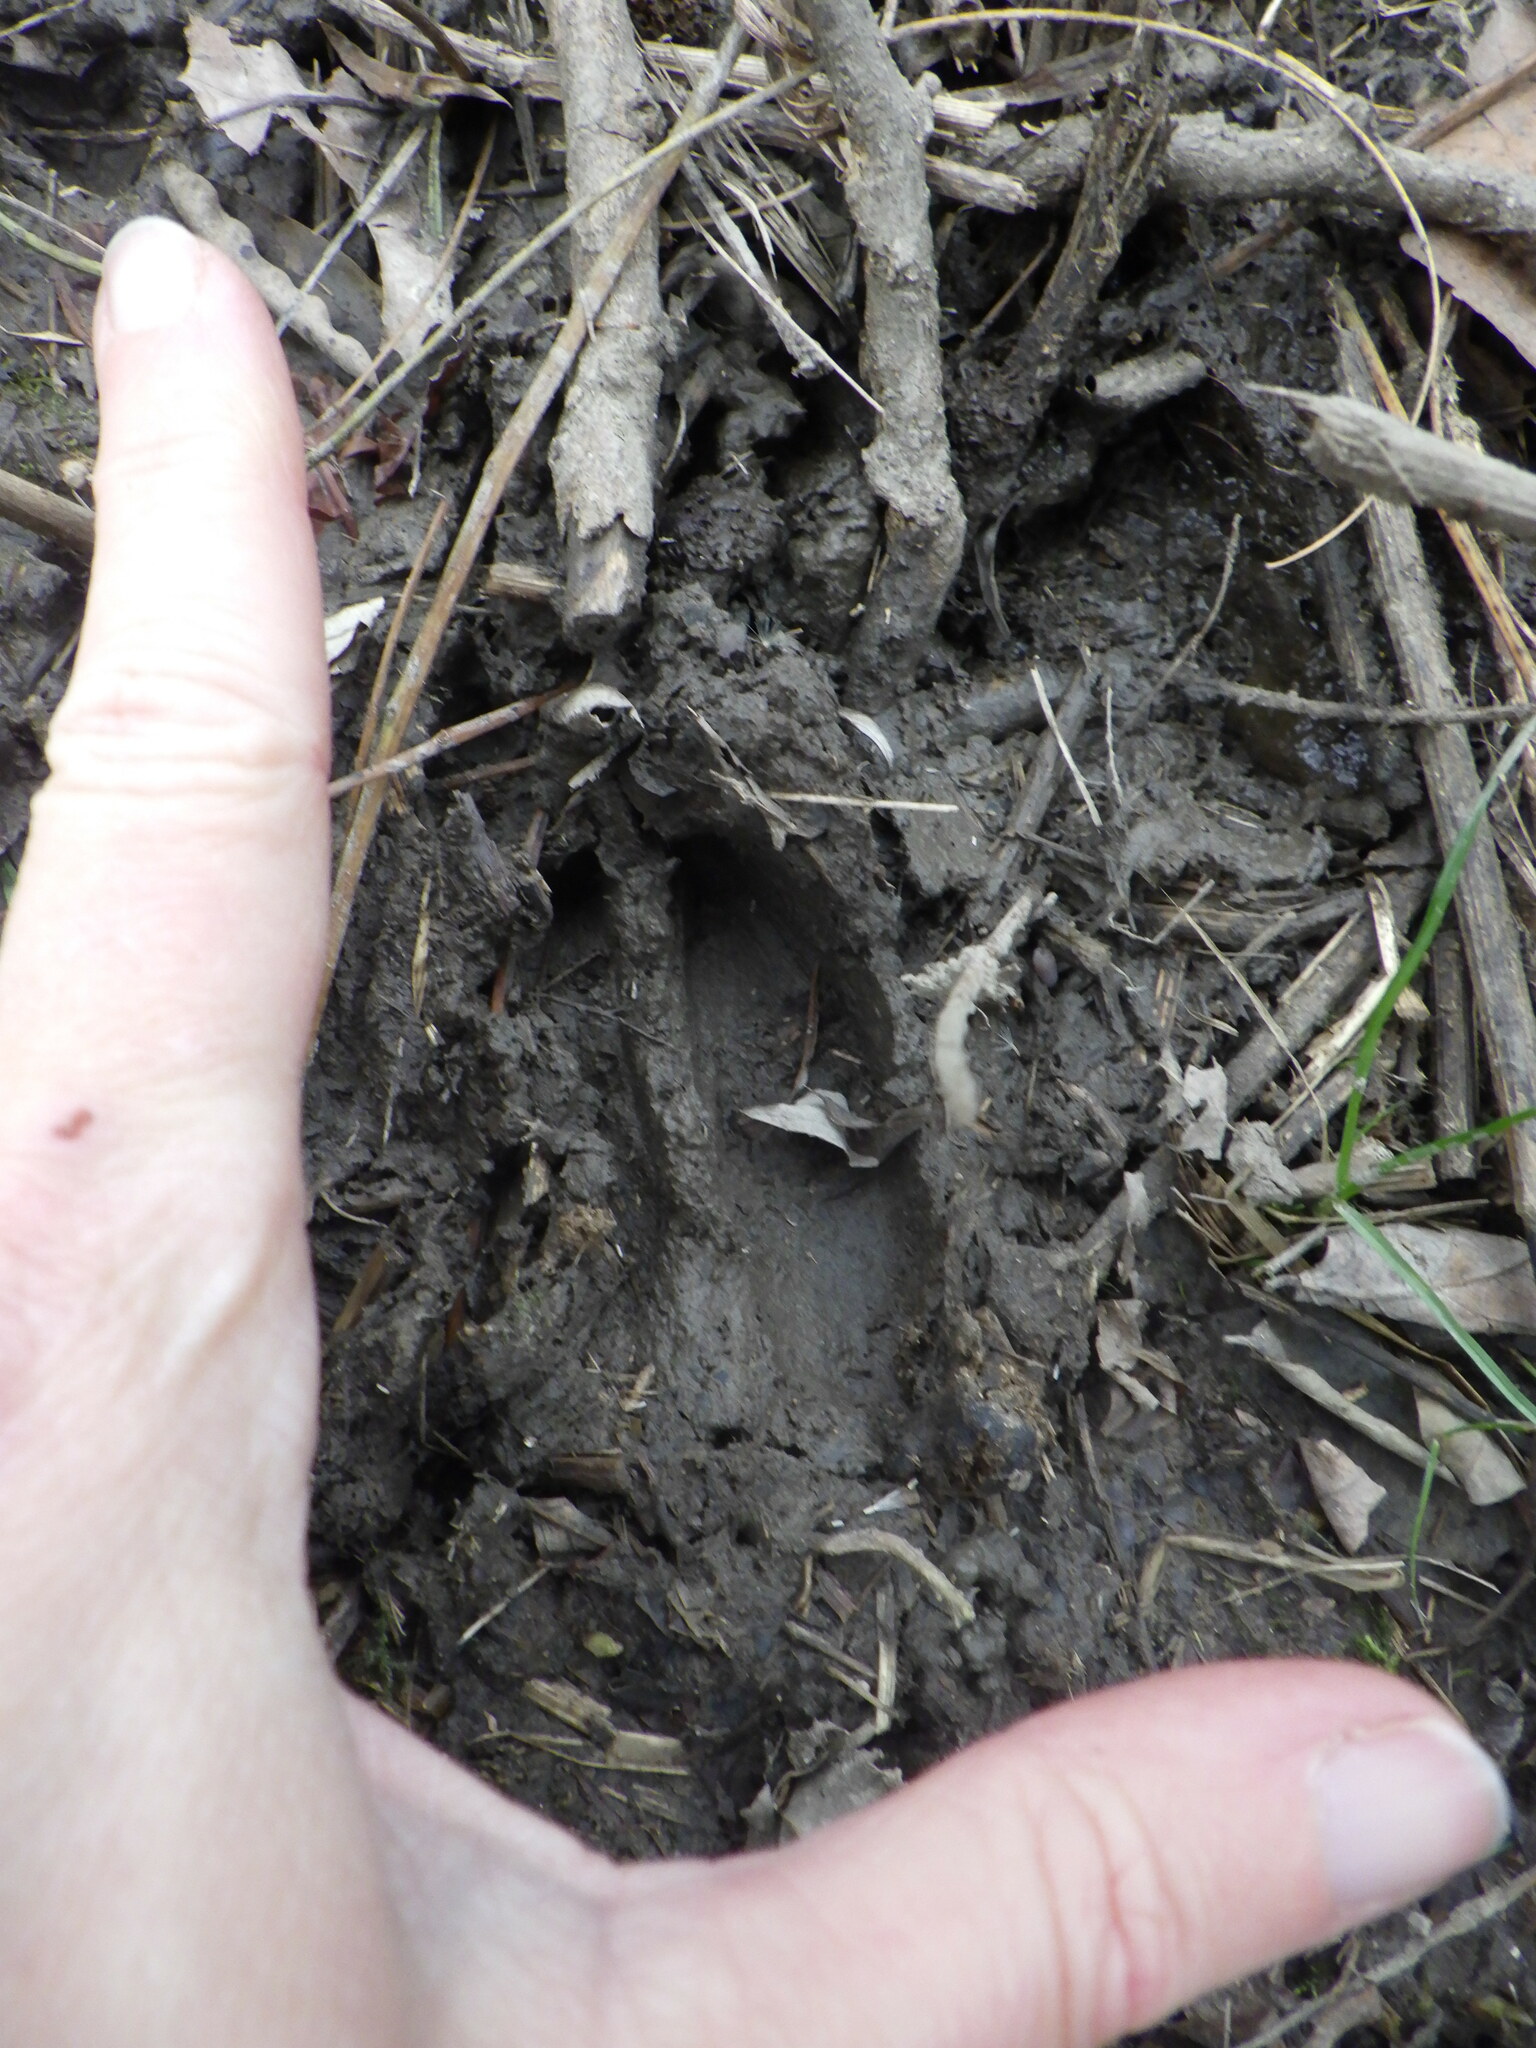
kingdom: Animalia
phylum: Chordata
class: Mammalia
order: Artiodactyla
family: Cervidae
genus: Odocoileus
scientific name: Odocoileus virginianus
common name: White-tailed deer
